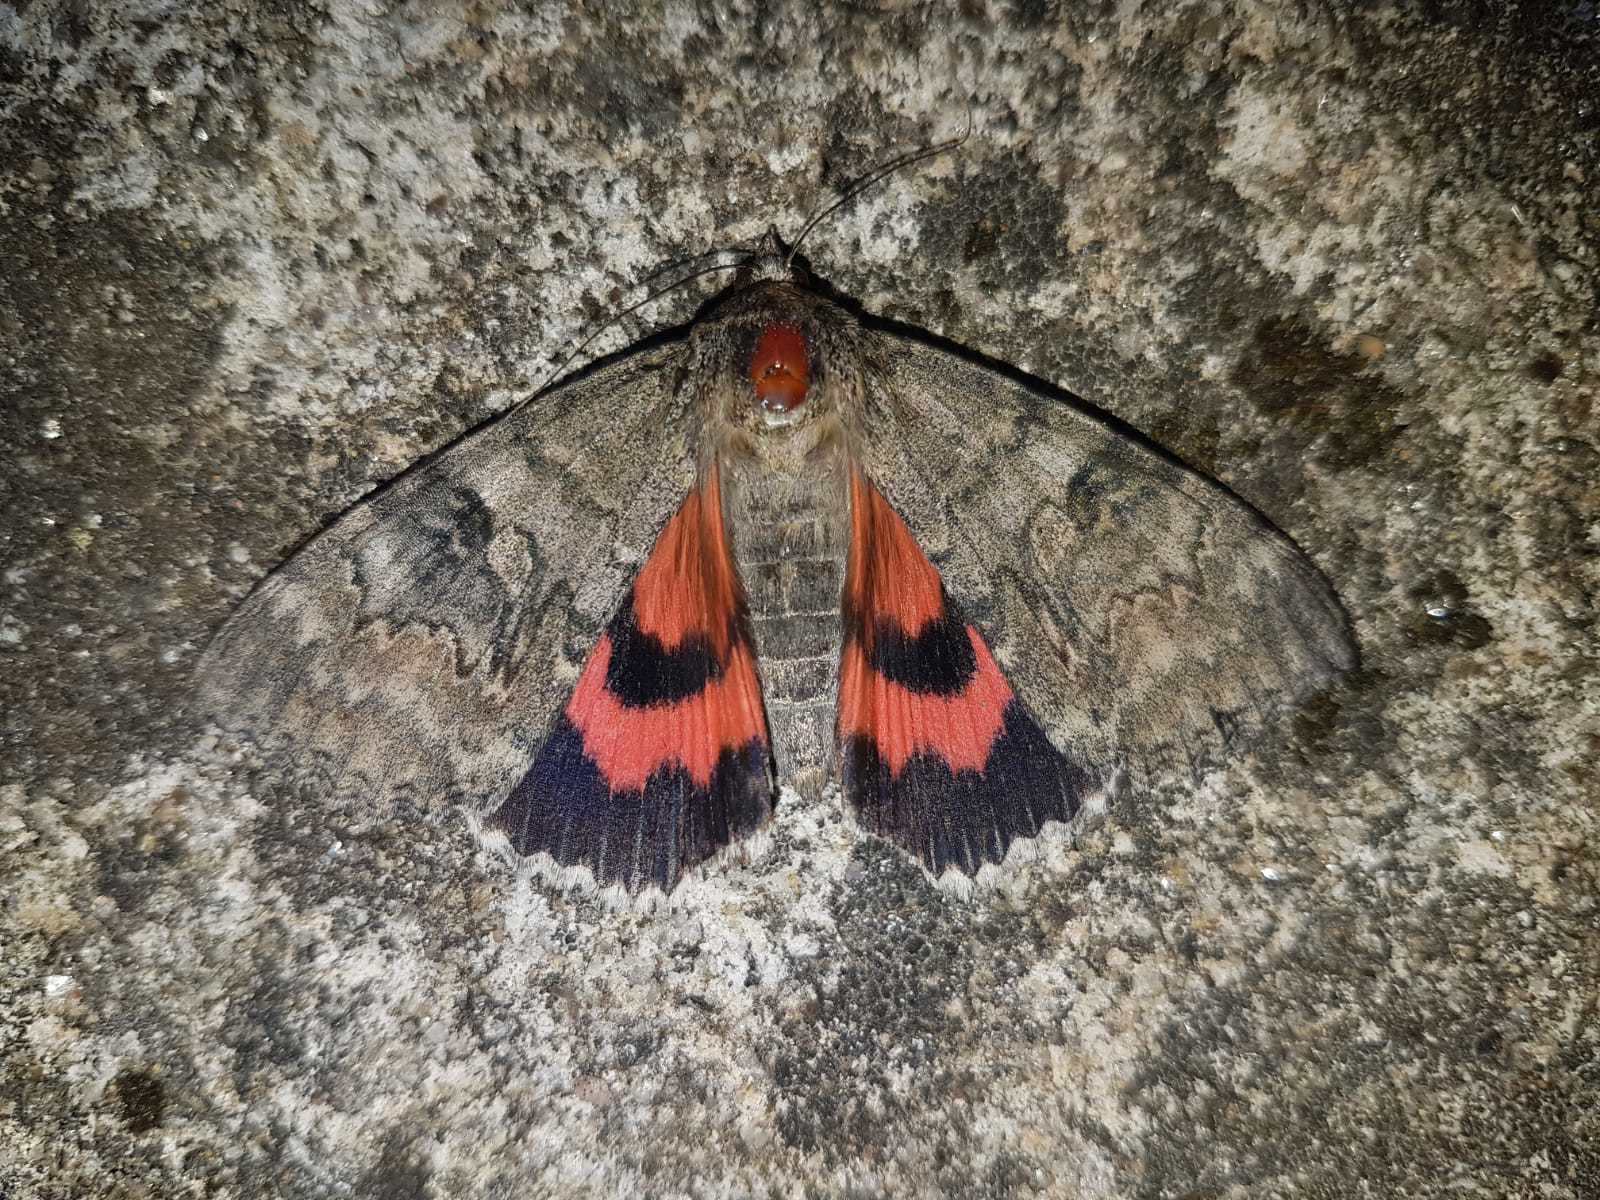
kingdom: Animalia
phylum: Arthropoda
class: Insecta
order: Lepidoptera
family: Erebidae
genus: Catocala
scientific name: Catocala nupta
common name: Red underwing
